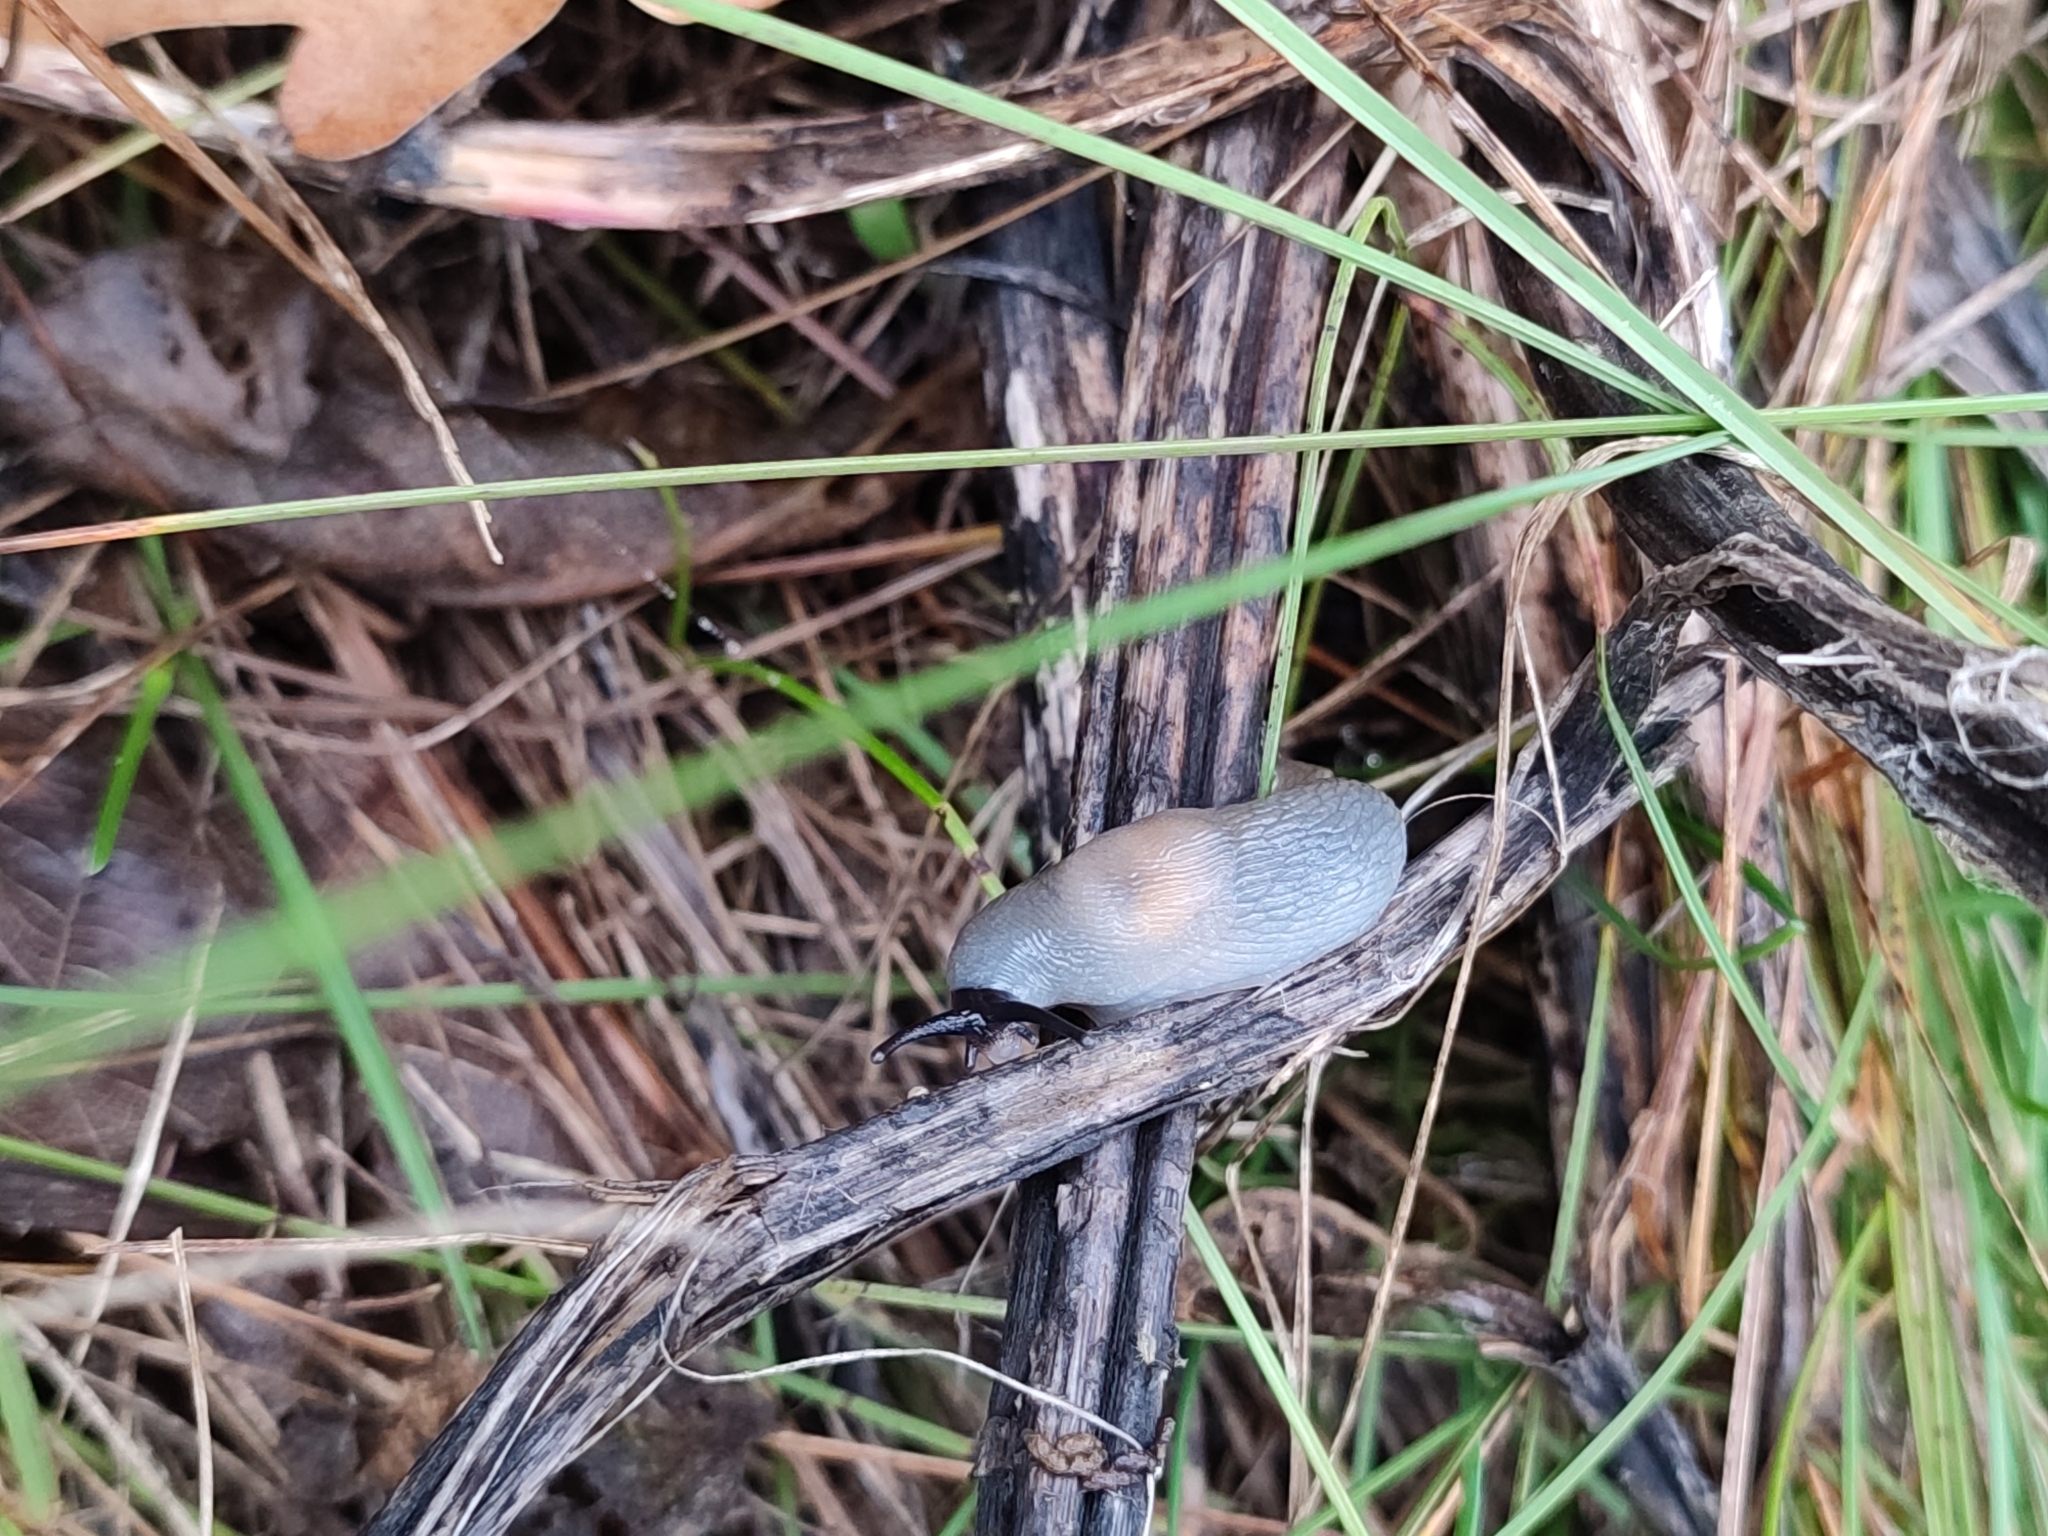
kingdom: Animalia
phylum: Mollusca
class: Gastropoda
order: Stylommatophora
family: Agriolimacidae
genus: Krynickillus
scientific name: Krynickillus melanocephalus
